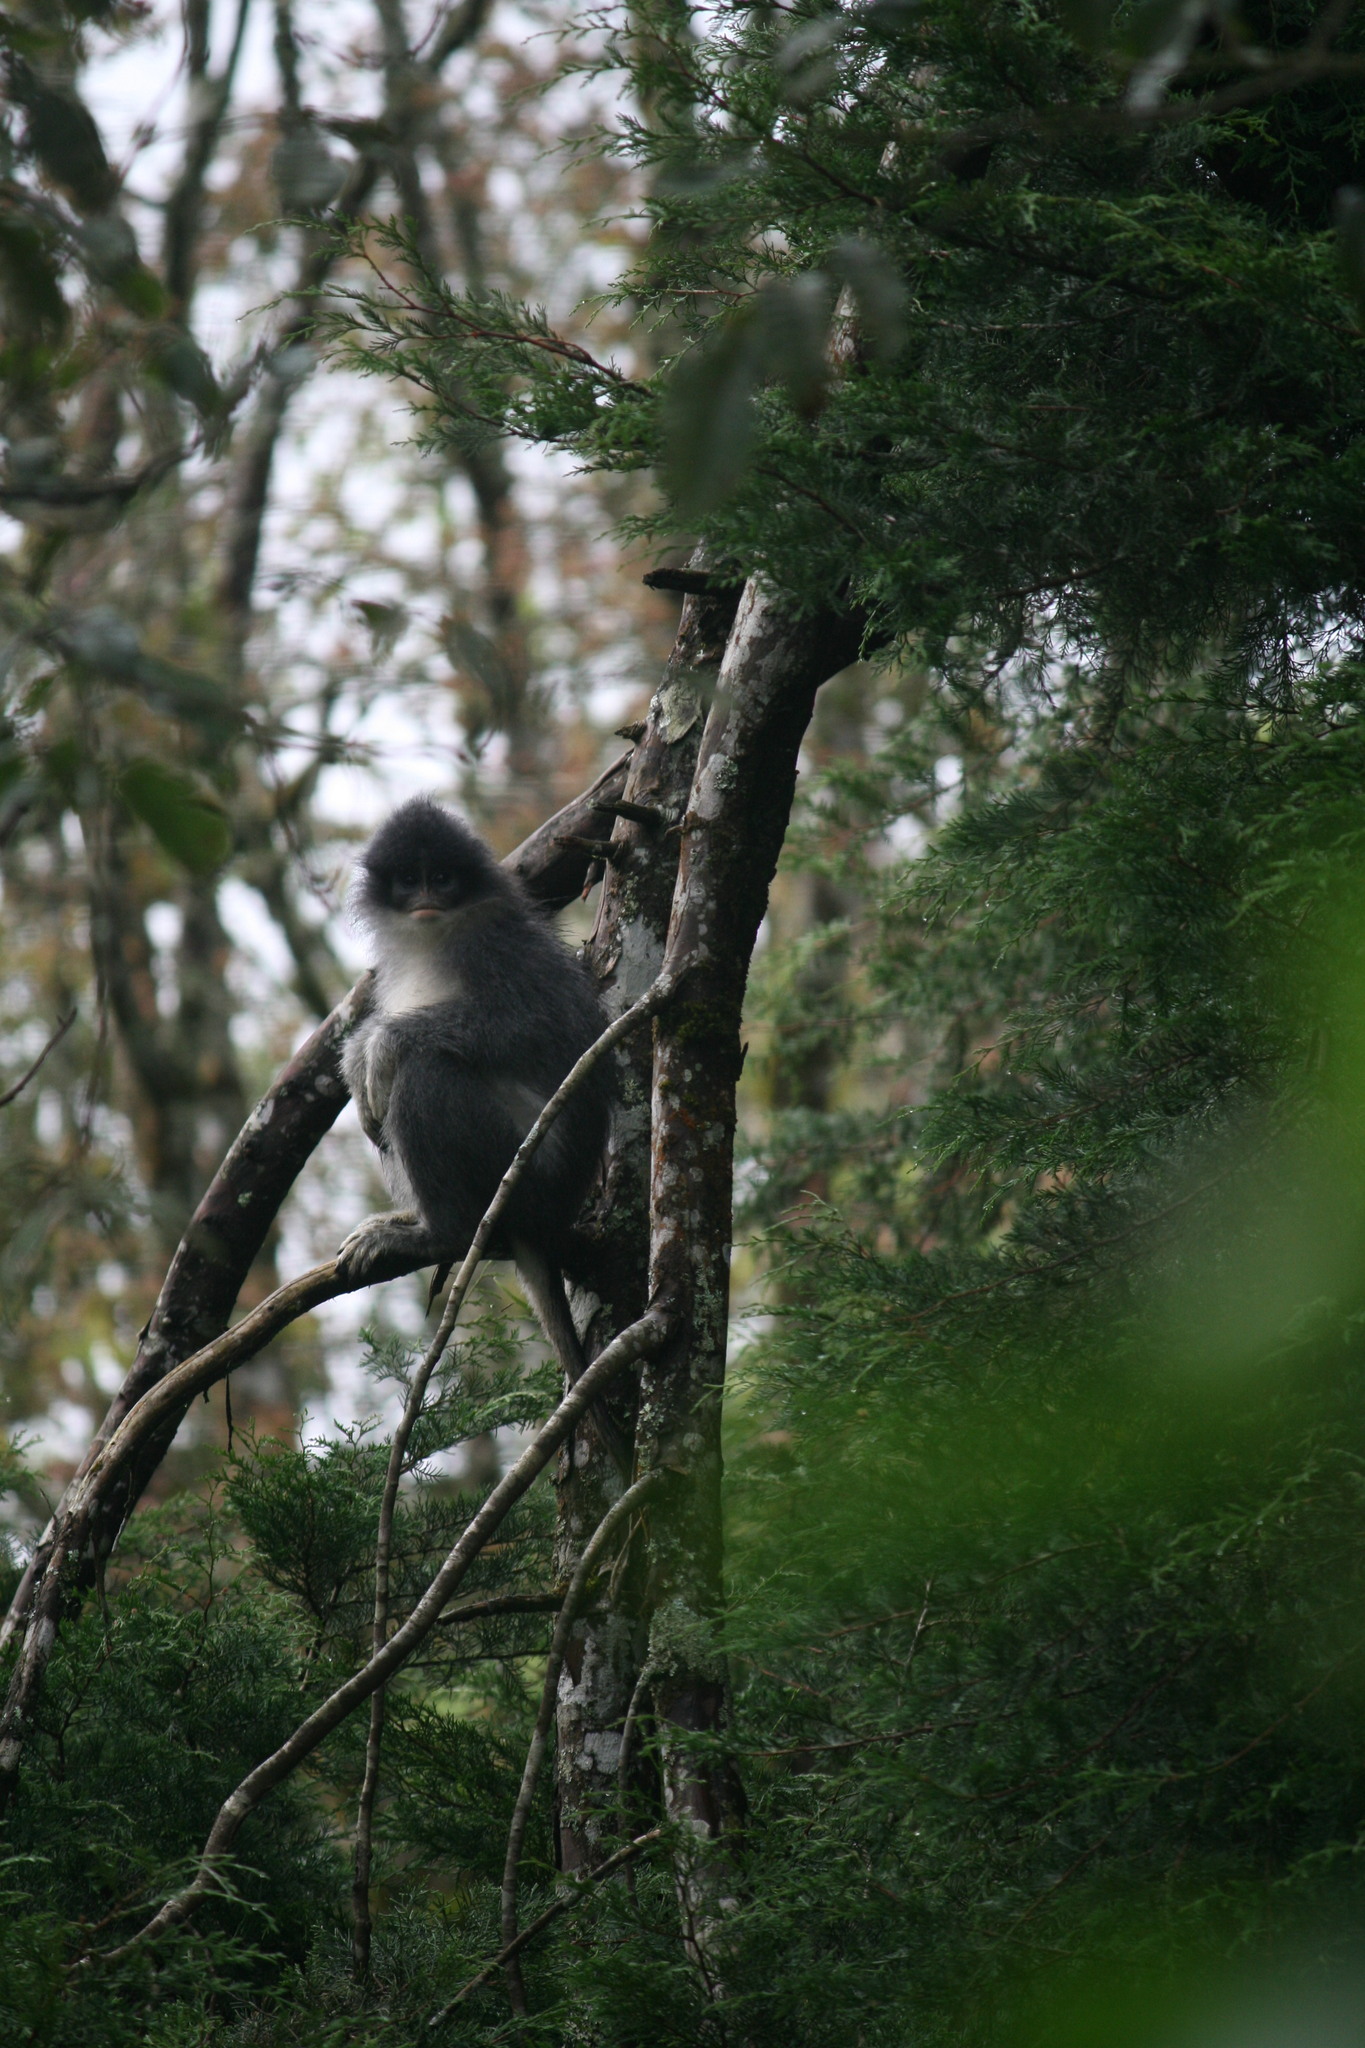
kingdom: Animalia
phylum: Chordata
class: Mammalia
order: Primates
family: Cercopithecidae
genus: Presbytis
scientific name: Presbytis comata
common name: Javan surili
